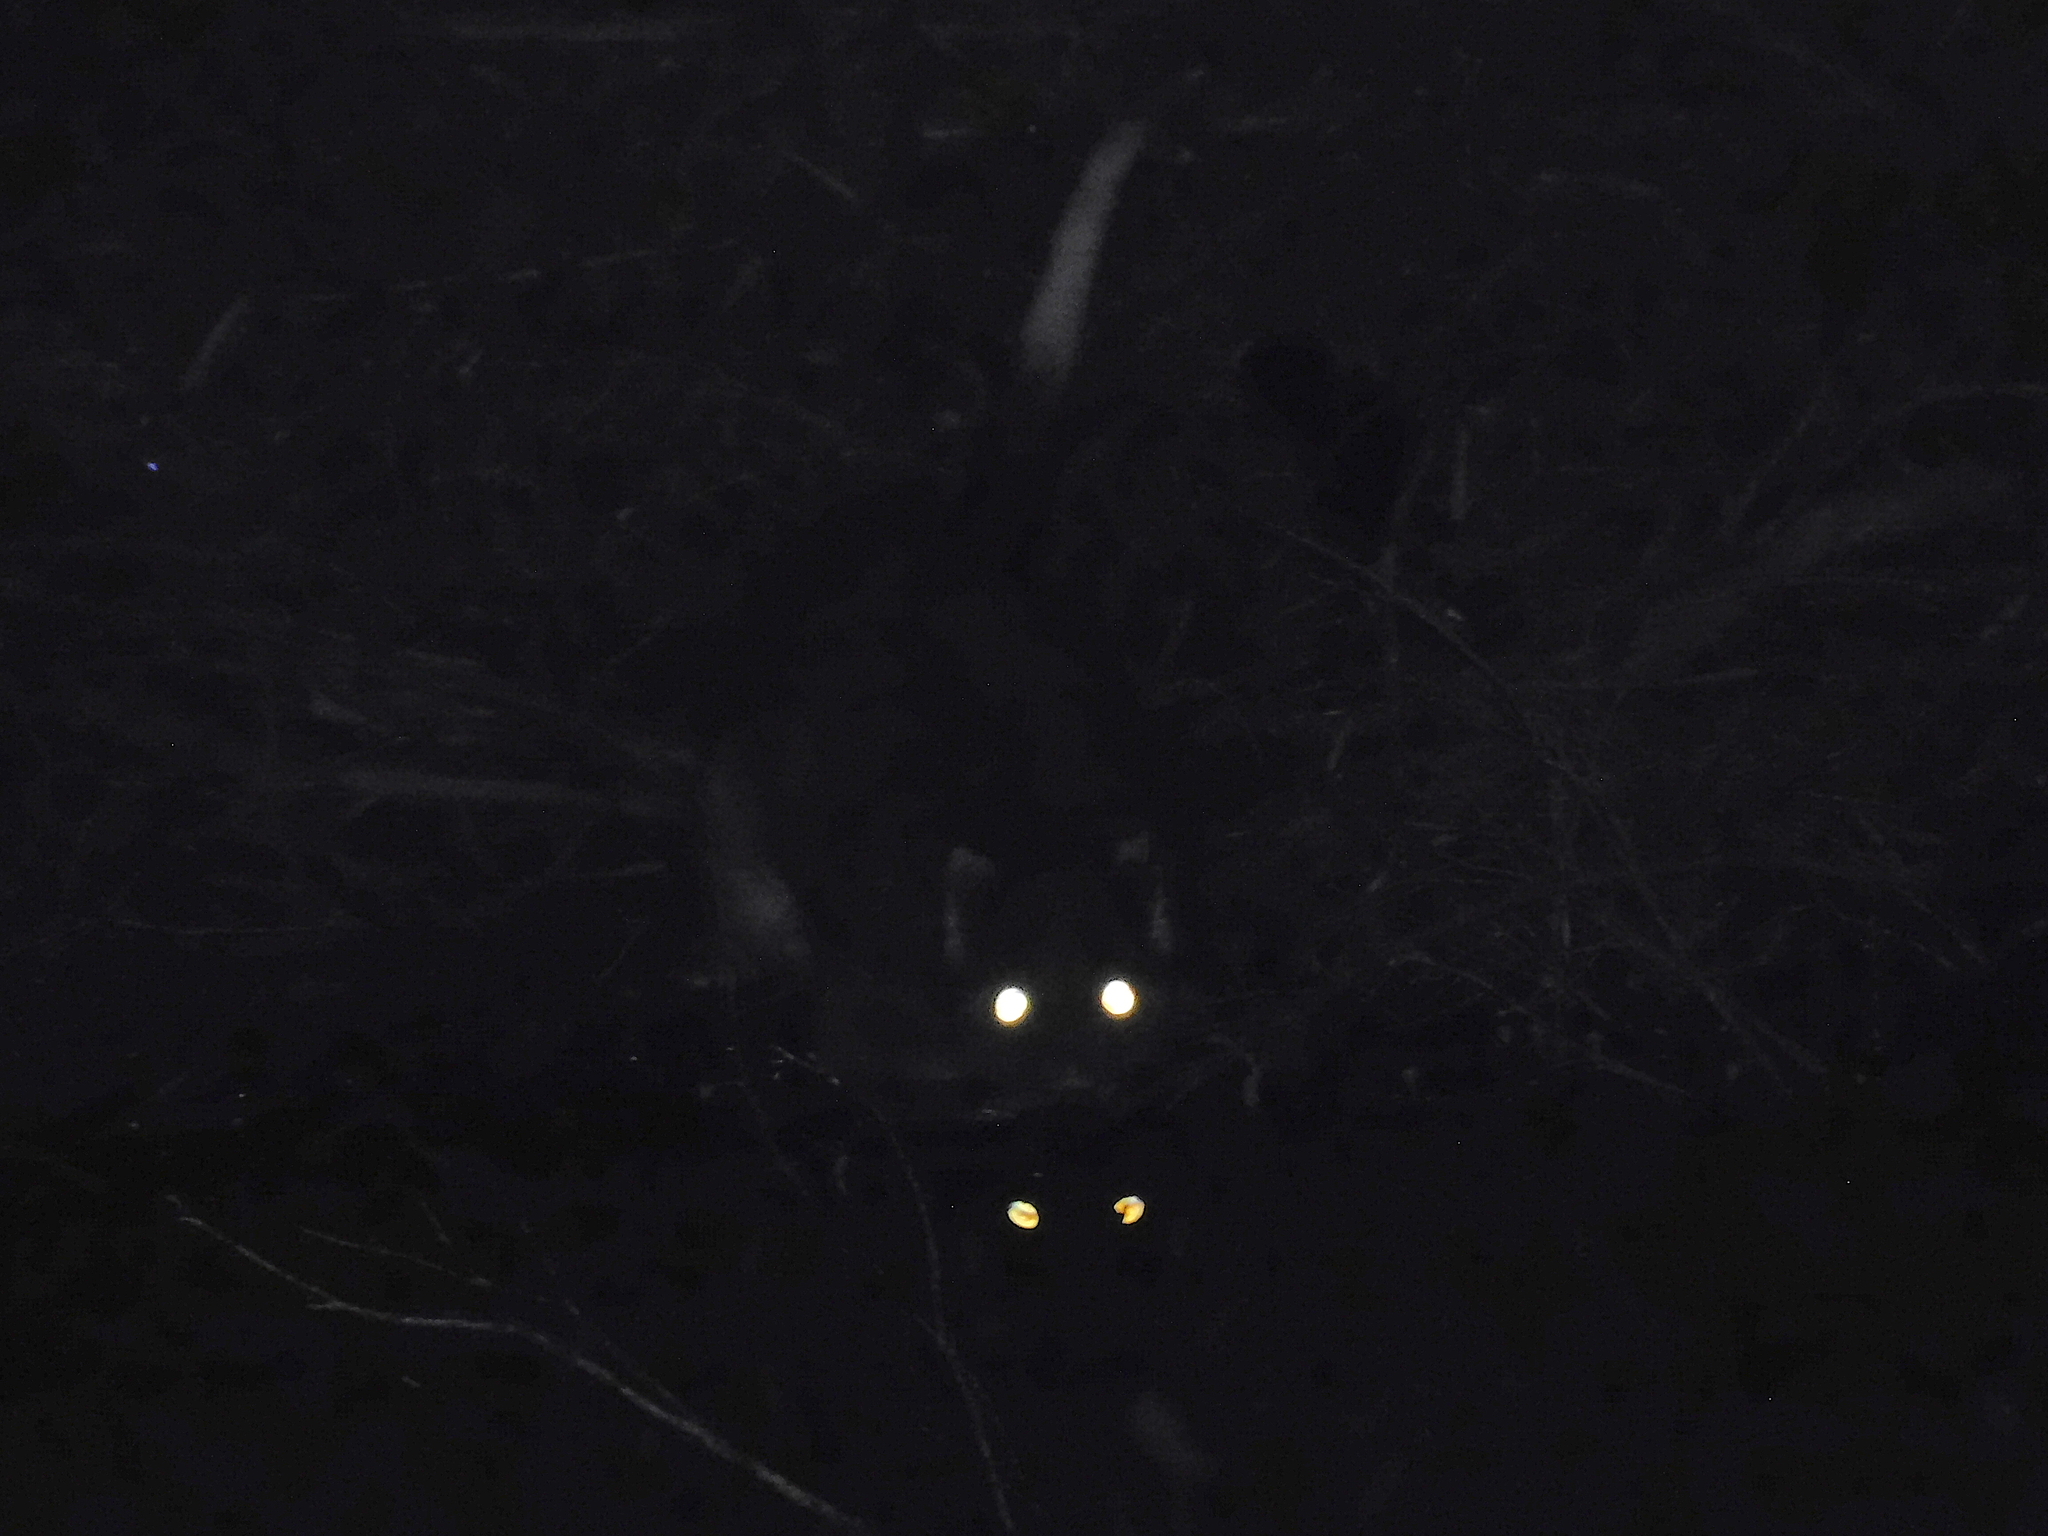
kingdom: Animalia
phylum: Chordata
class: Mammalia
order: Diprotodontia
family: Pseudocheiridae
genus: Pseudocheirus
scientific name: Pseudocheirus peregrinus
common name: Common ringtail possum
